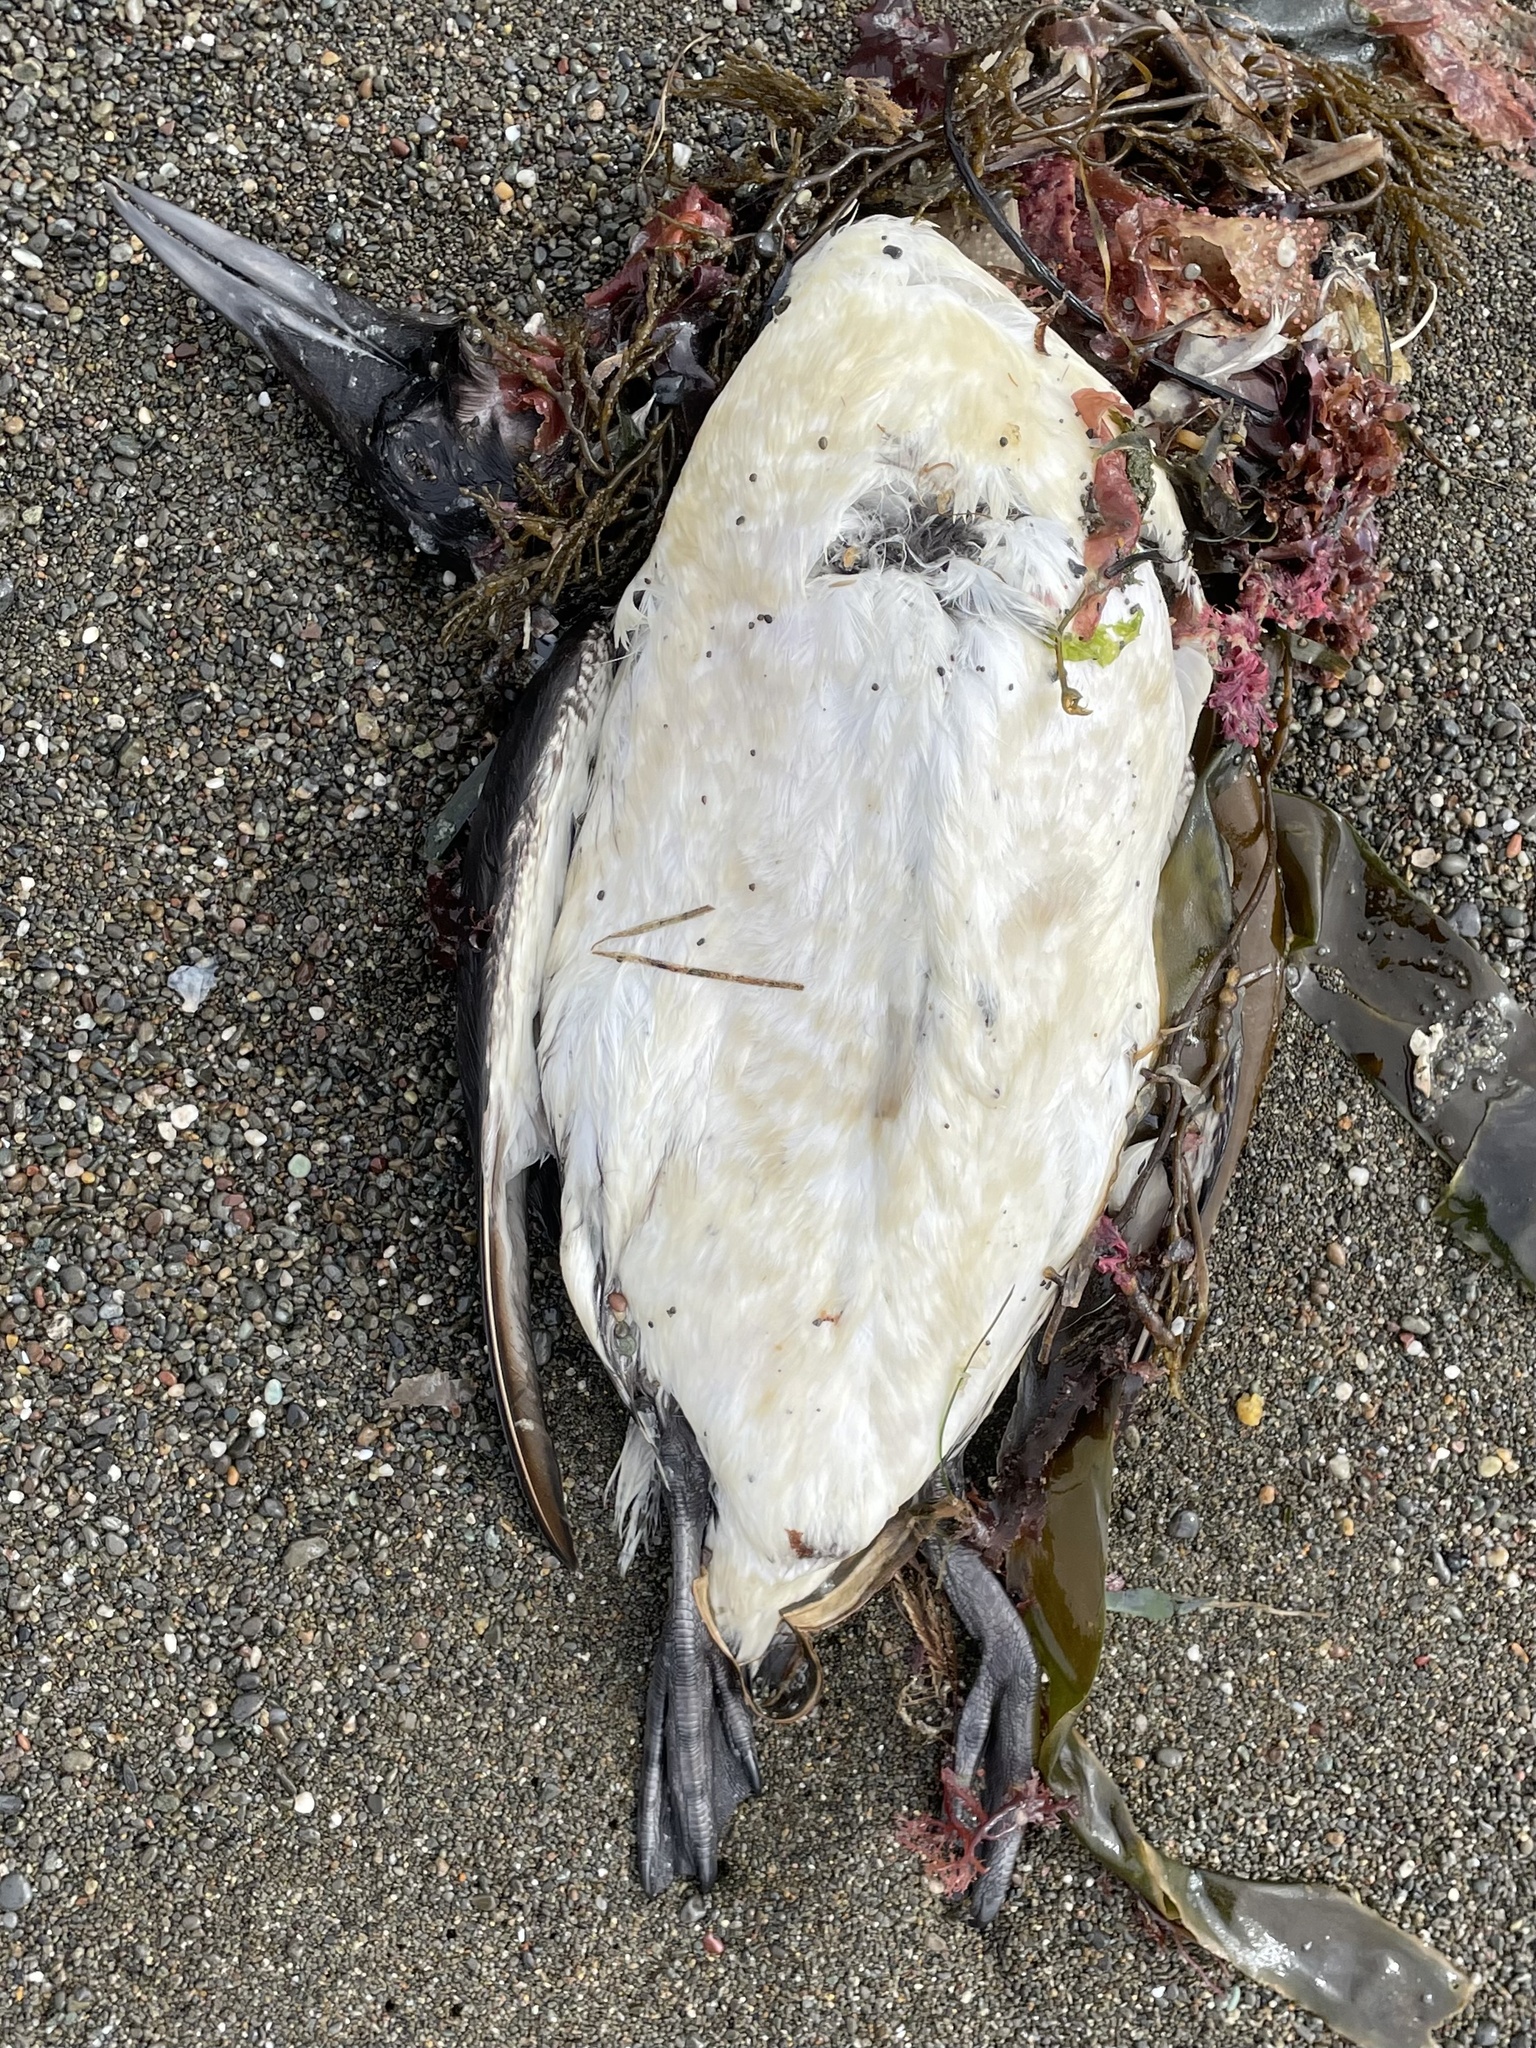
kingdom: Animalia
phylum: Chordata
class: Aves
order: Charadriiformes
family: Alcidae
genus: Uria
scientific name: Uria aalge
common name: Common murre
